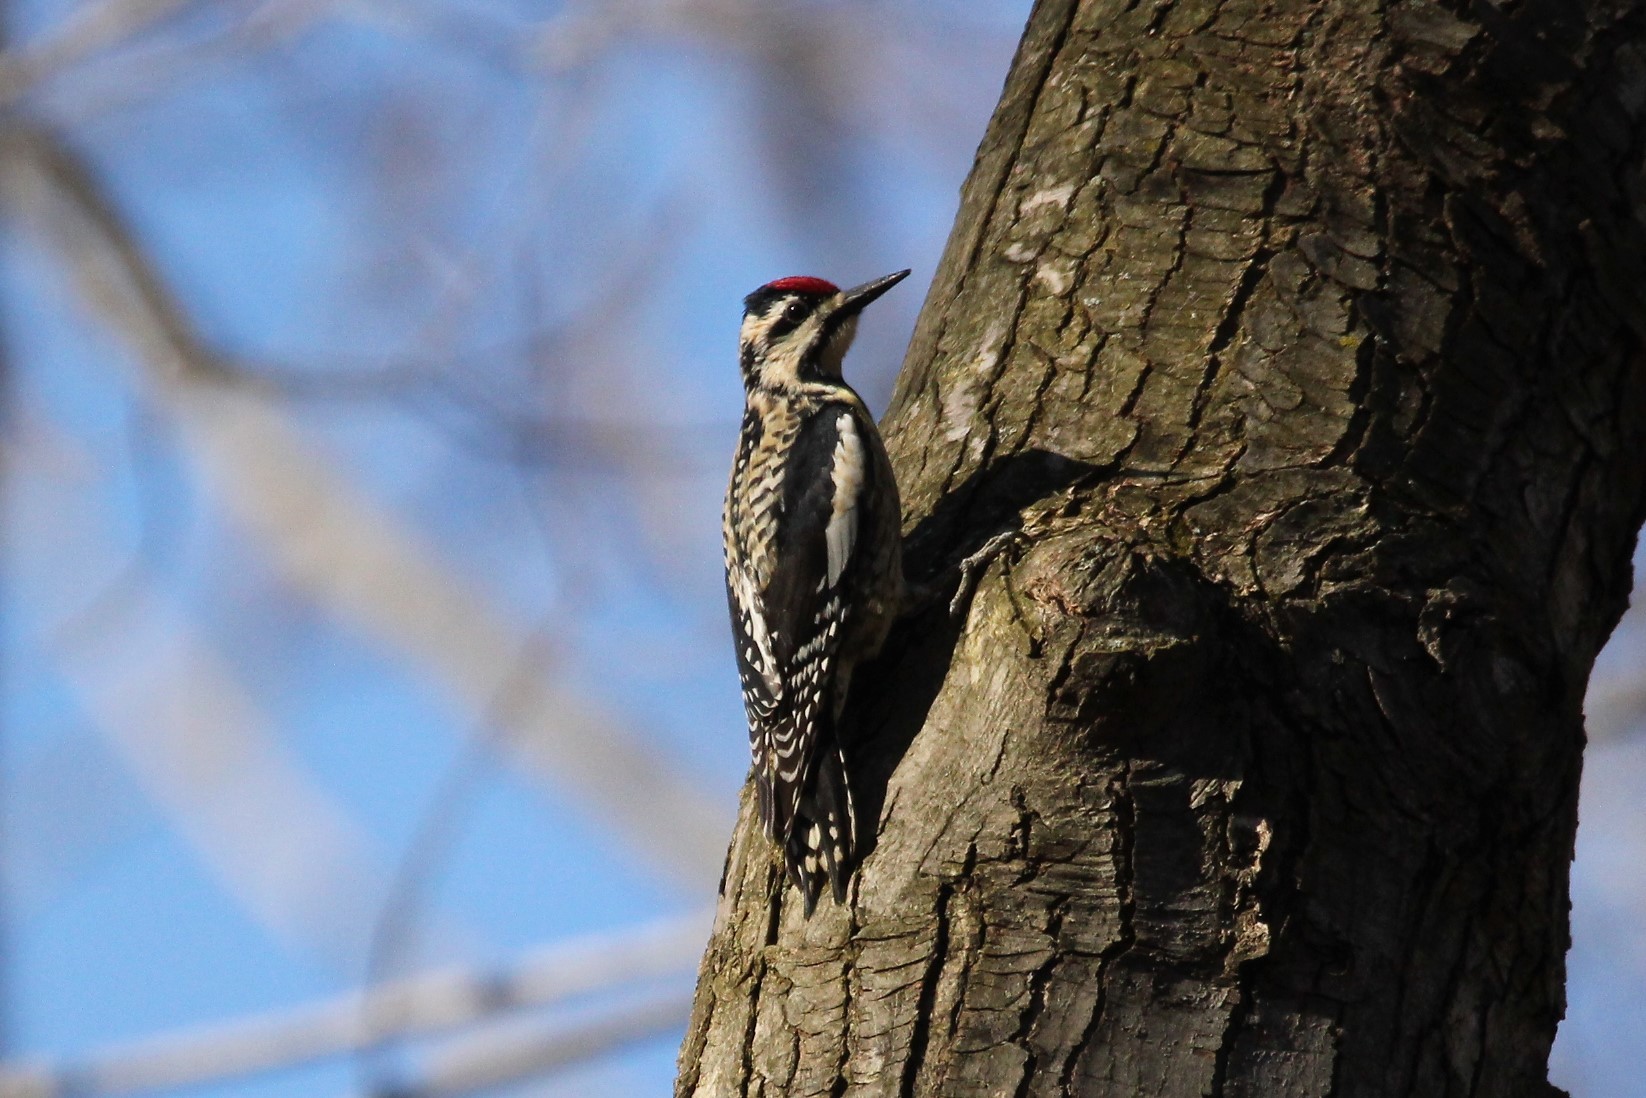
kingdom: Animalia
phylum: Chordata
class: Aves
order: Piciformes
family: Picidae
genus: Sphyrapicus
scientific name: Sphyrapicus varius
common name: Yellow-bellied sapsucker
